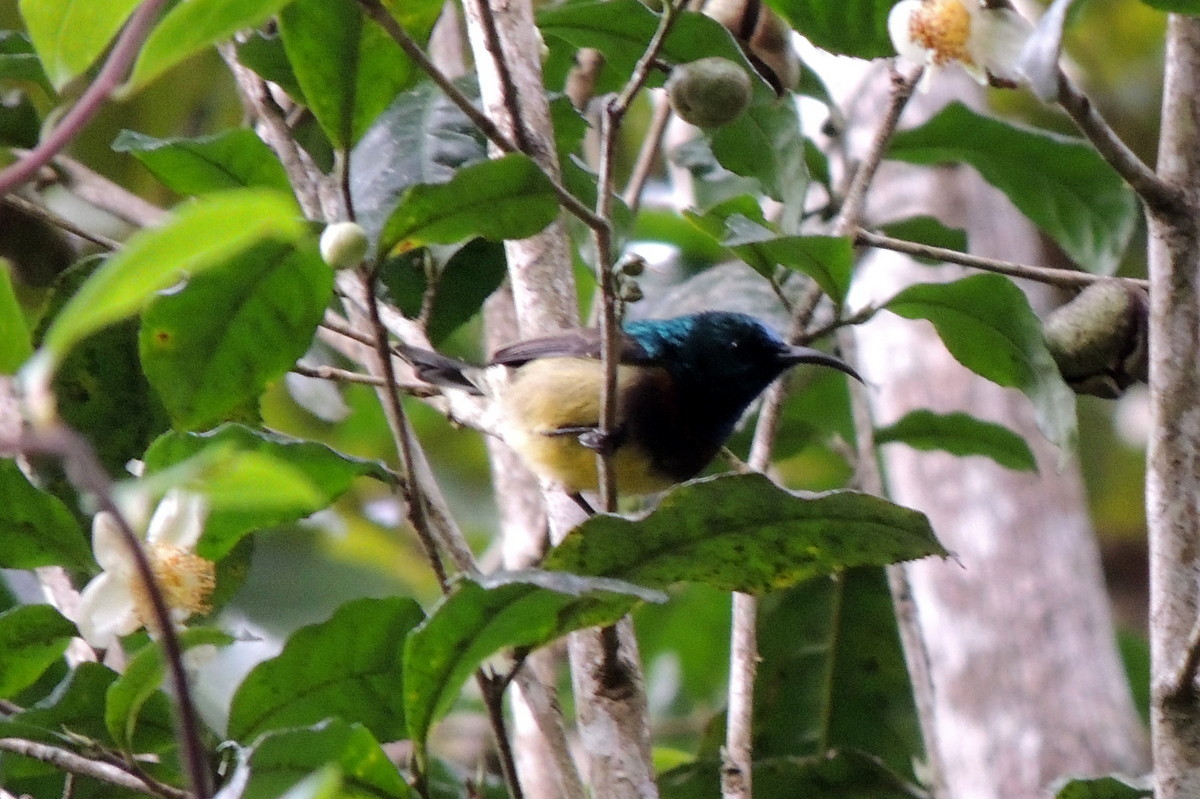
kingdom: Animalia
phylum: Chordata
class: Aves
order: Passeriformes
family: Nectariniidae
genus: Cinnyris
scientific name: Cinnyris sovimanga
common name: Souimanga sunbird
